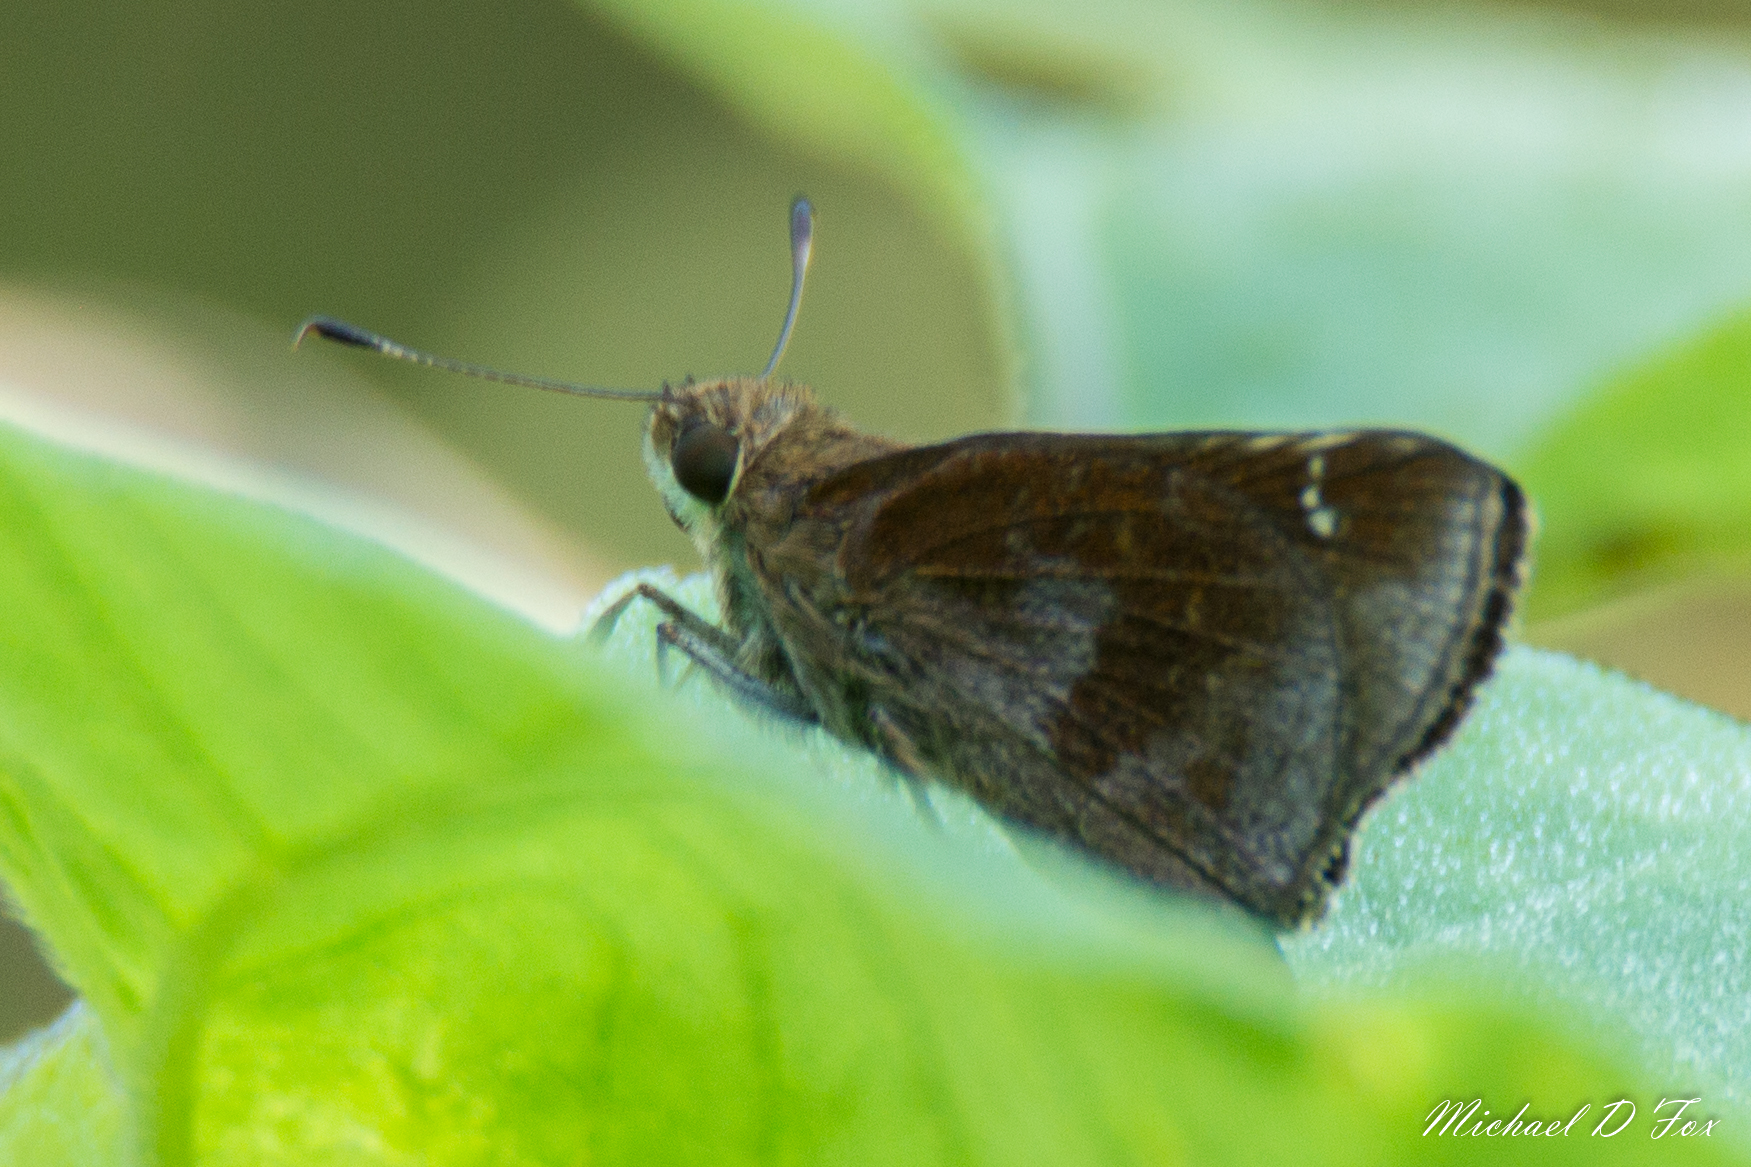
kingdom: Animalia
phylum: Arthropoda
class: Insecta
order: Lepidoptera
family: Hesperiidae
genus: Lerema
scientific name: Lerema accius
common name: Clouded skipper
